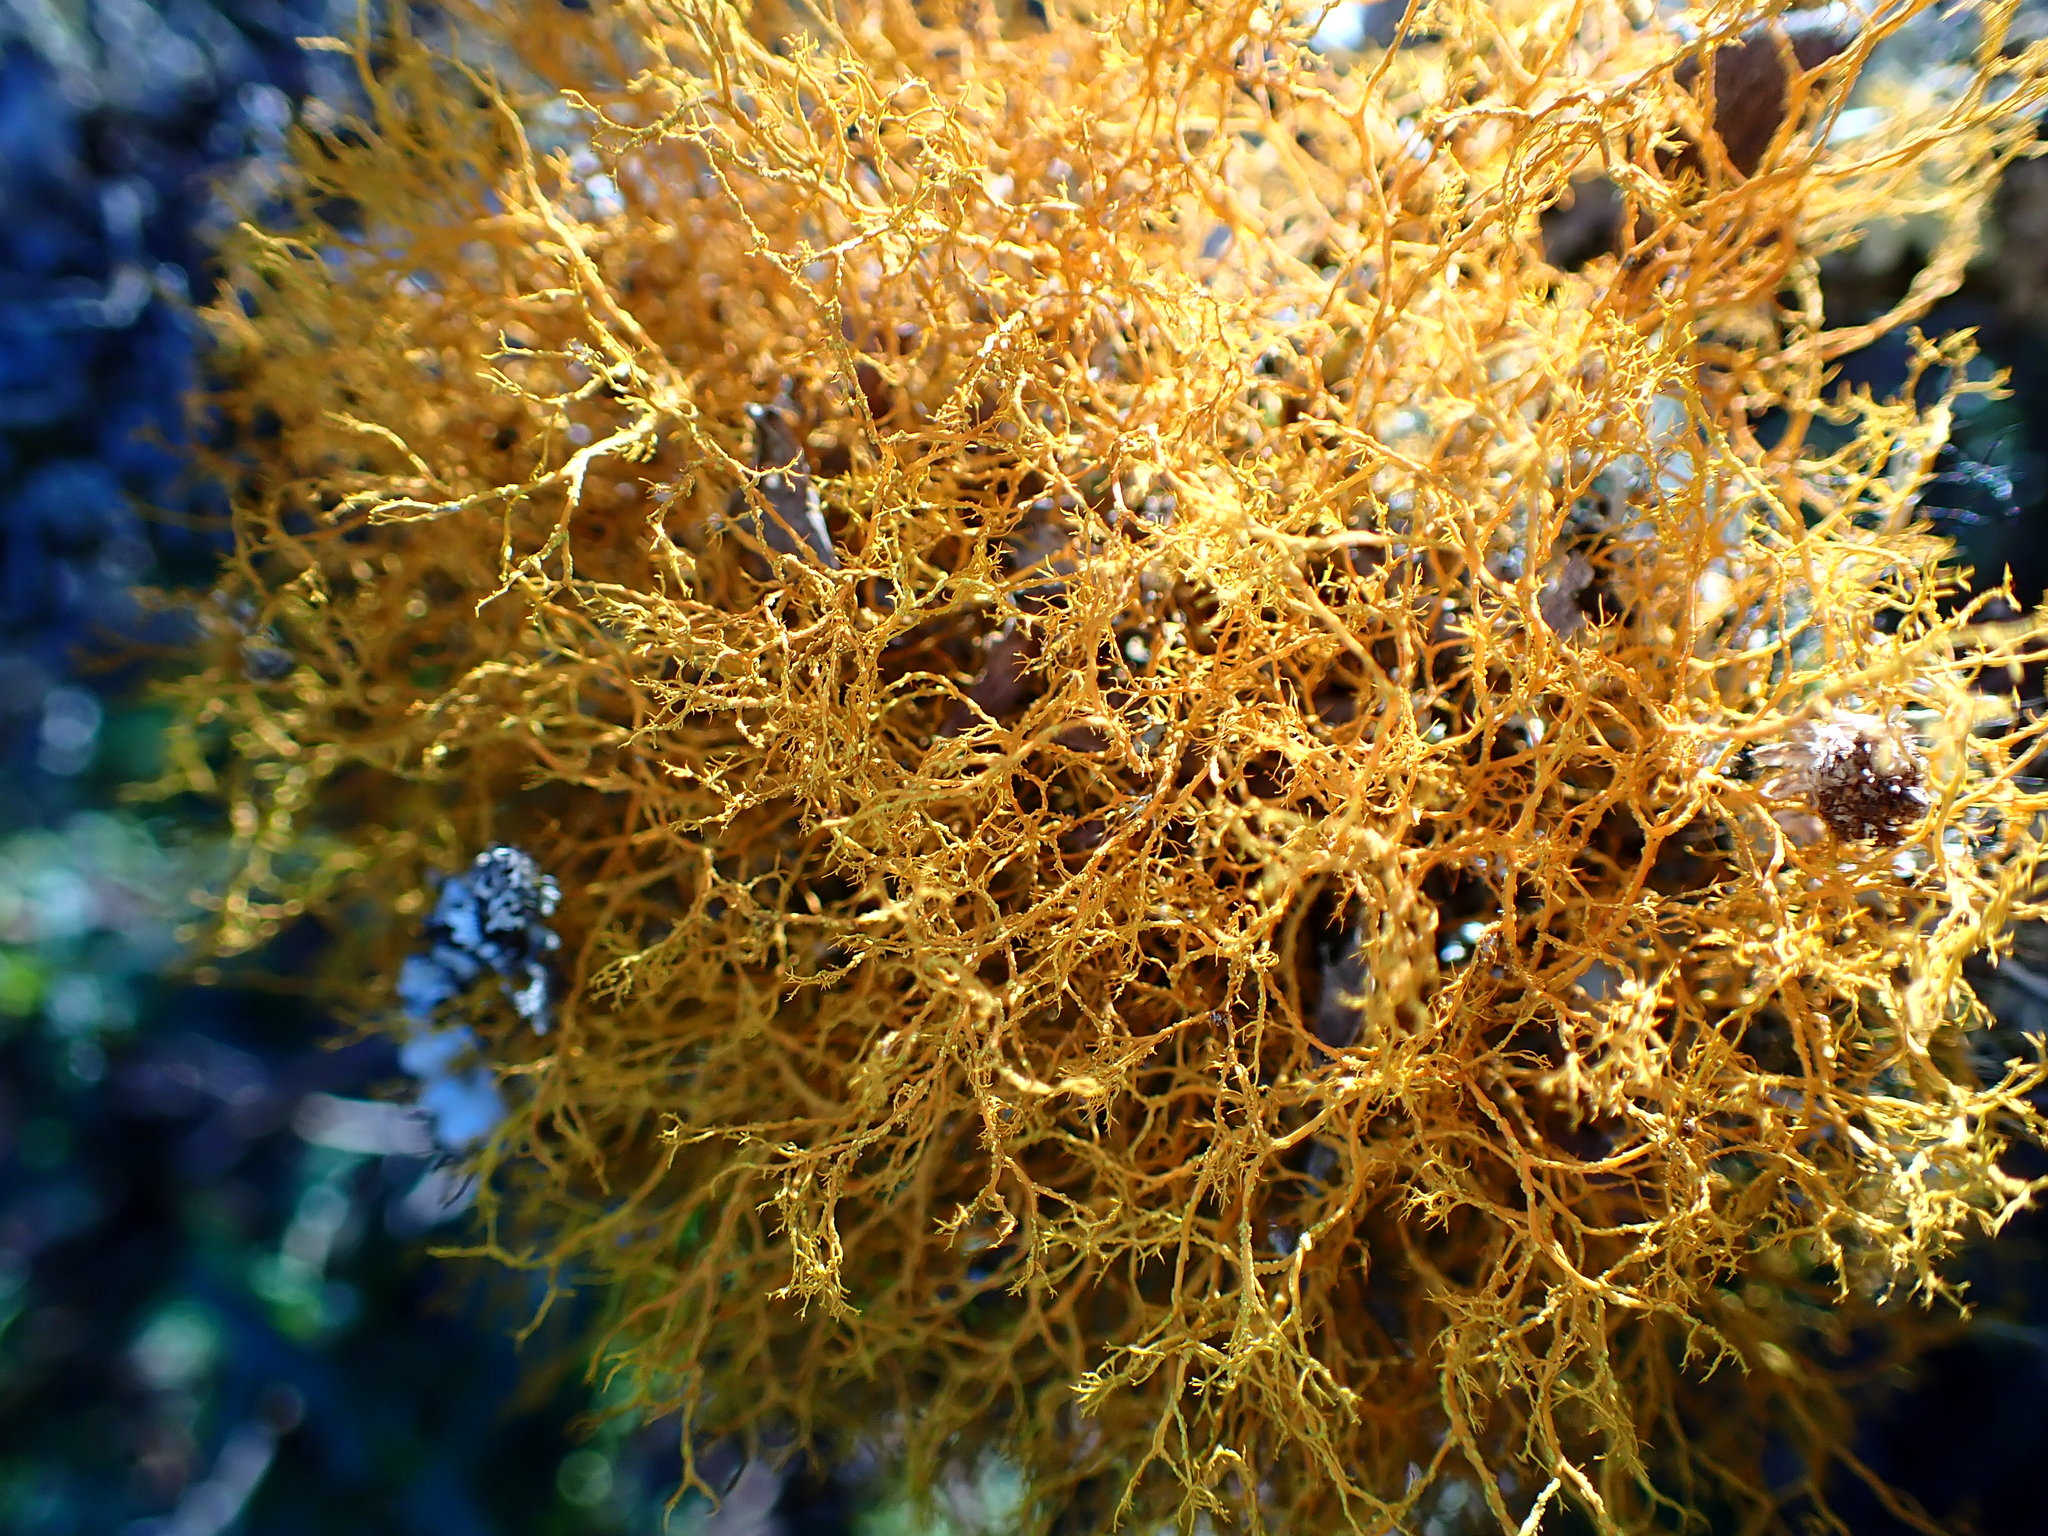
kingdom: Fungi
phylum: Ascomycota
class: Lecanoromycetes
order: Teloschistales
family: Teloschistaceae
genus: Teloschistes
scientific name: Teloschistes flavicans
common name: Golden hair-lichen
